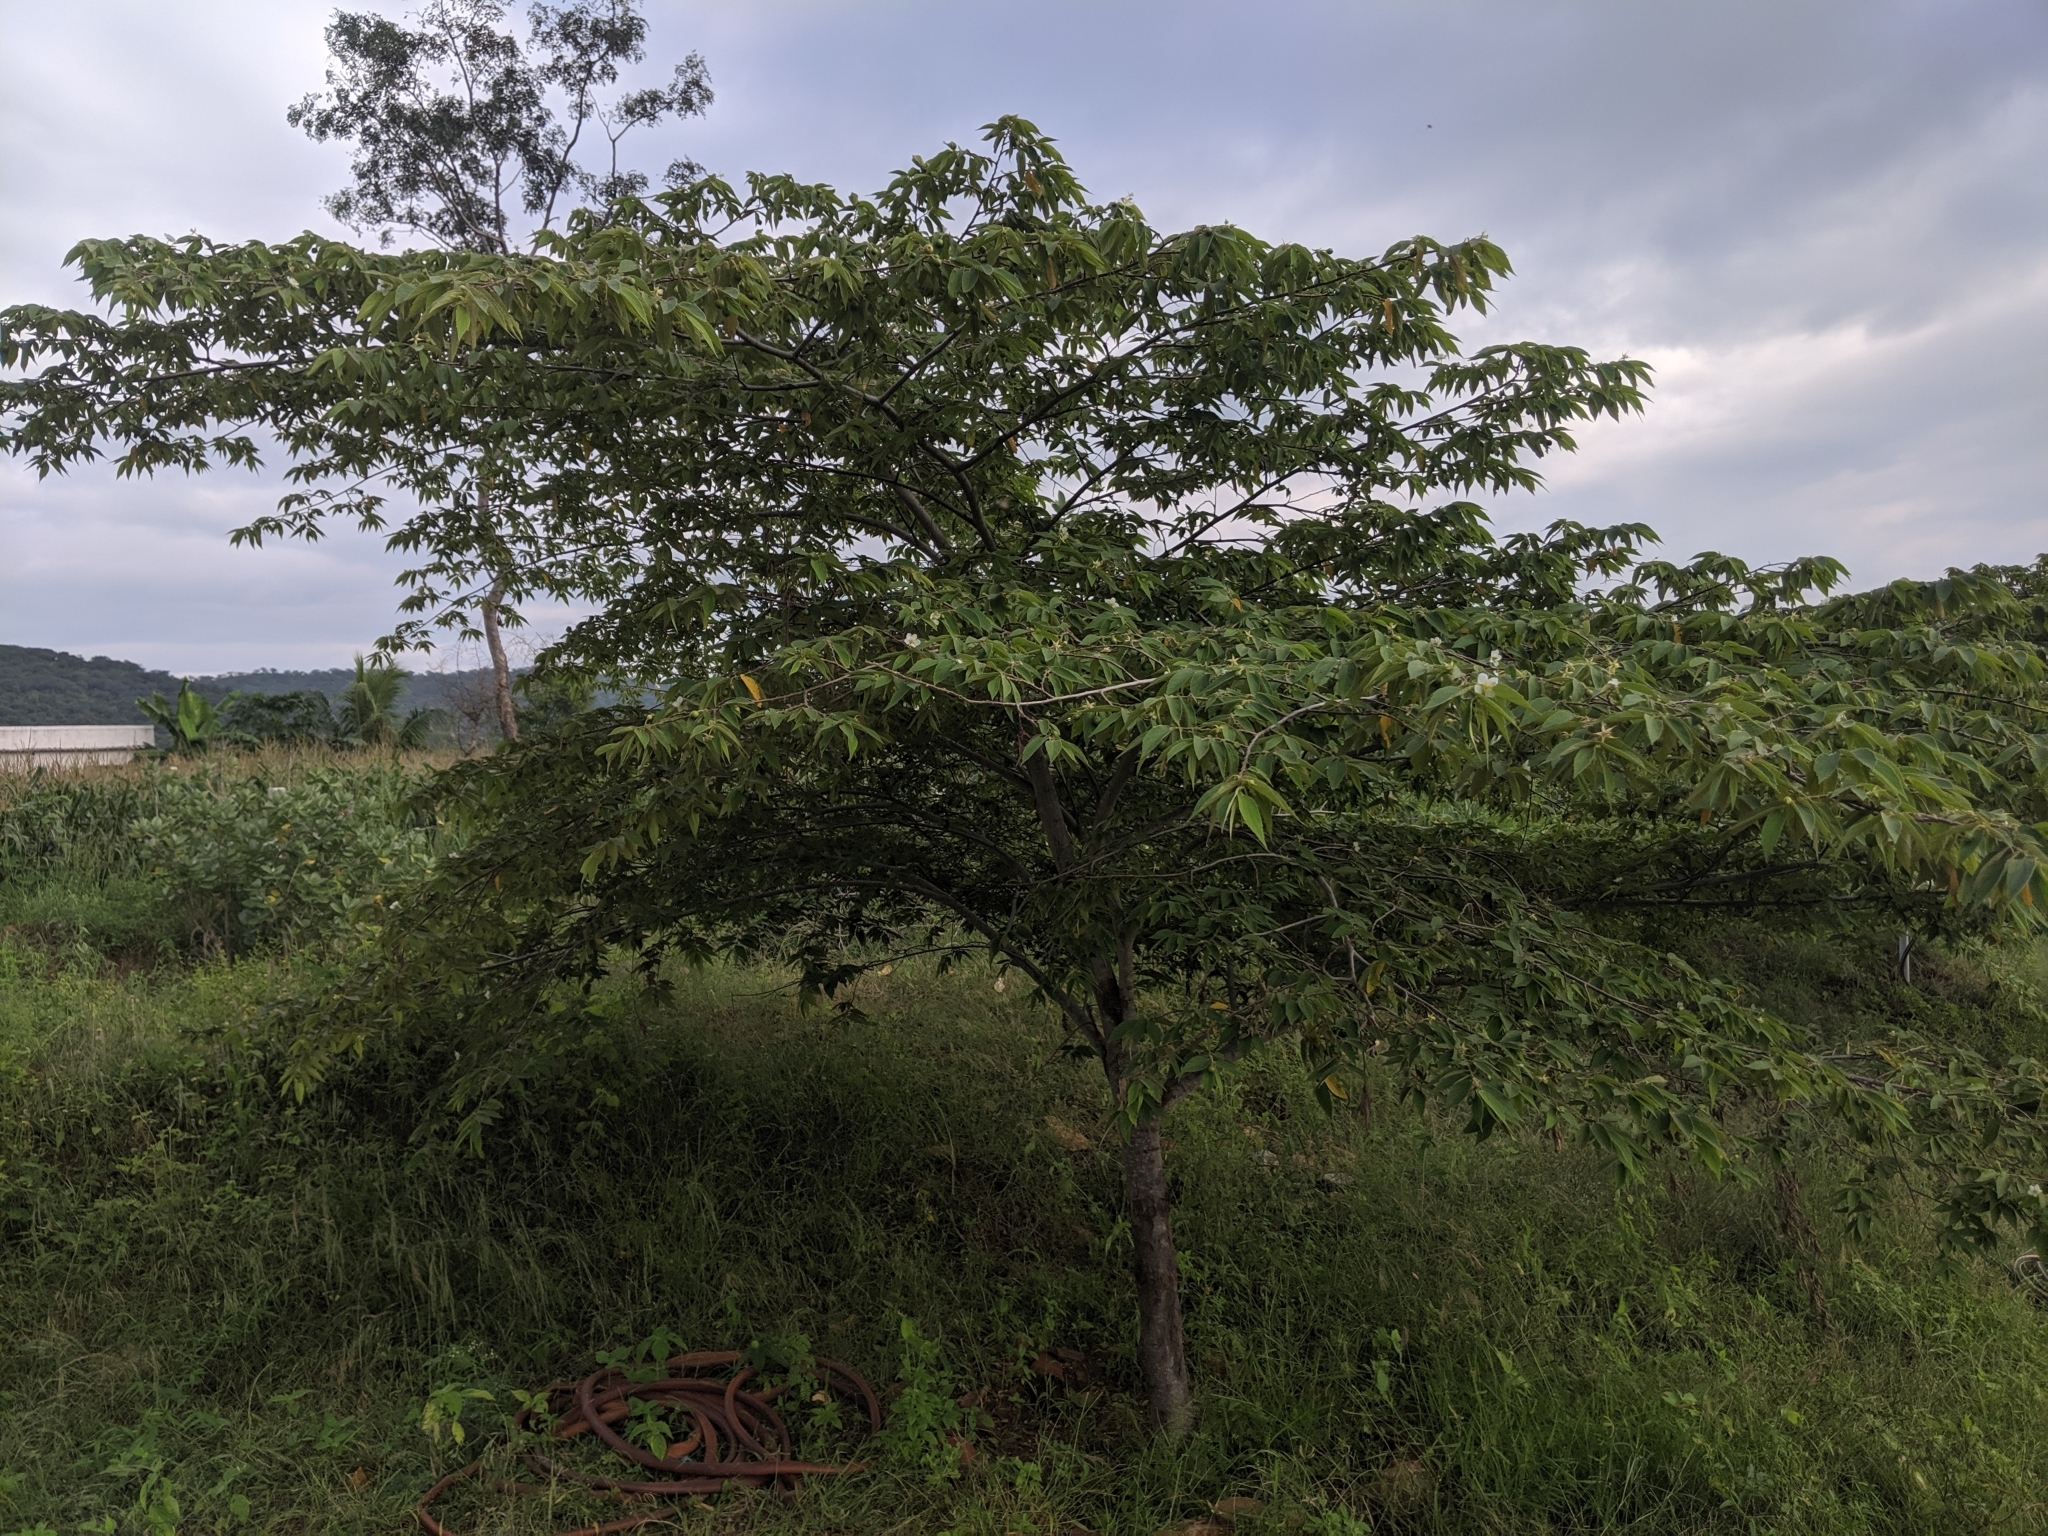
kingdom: Plantae
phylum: Tracheophyta
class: Magnoliopsida
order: Malvales
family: Muntingiaceae
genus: Muntingia
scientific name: Muntingia calabura
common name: Strawberrytree
